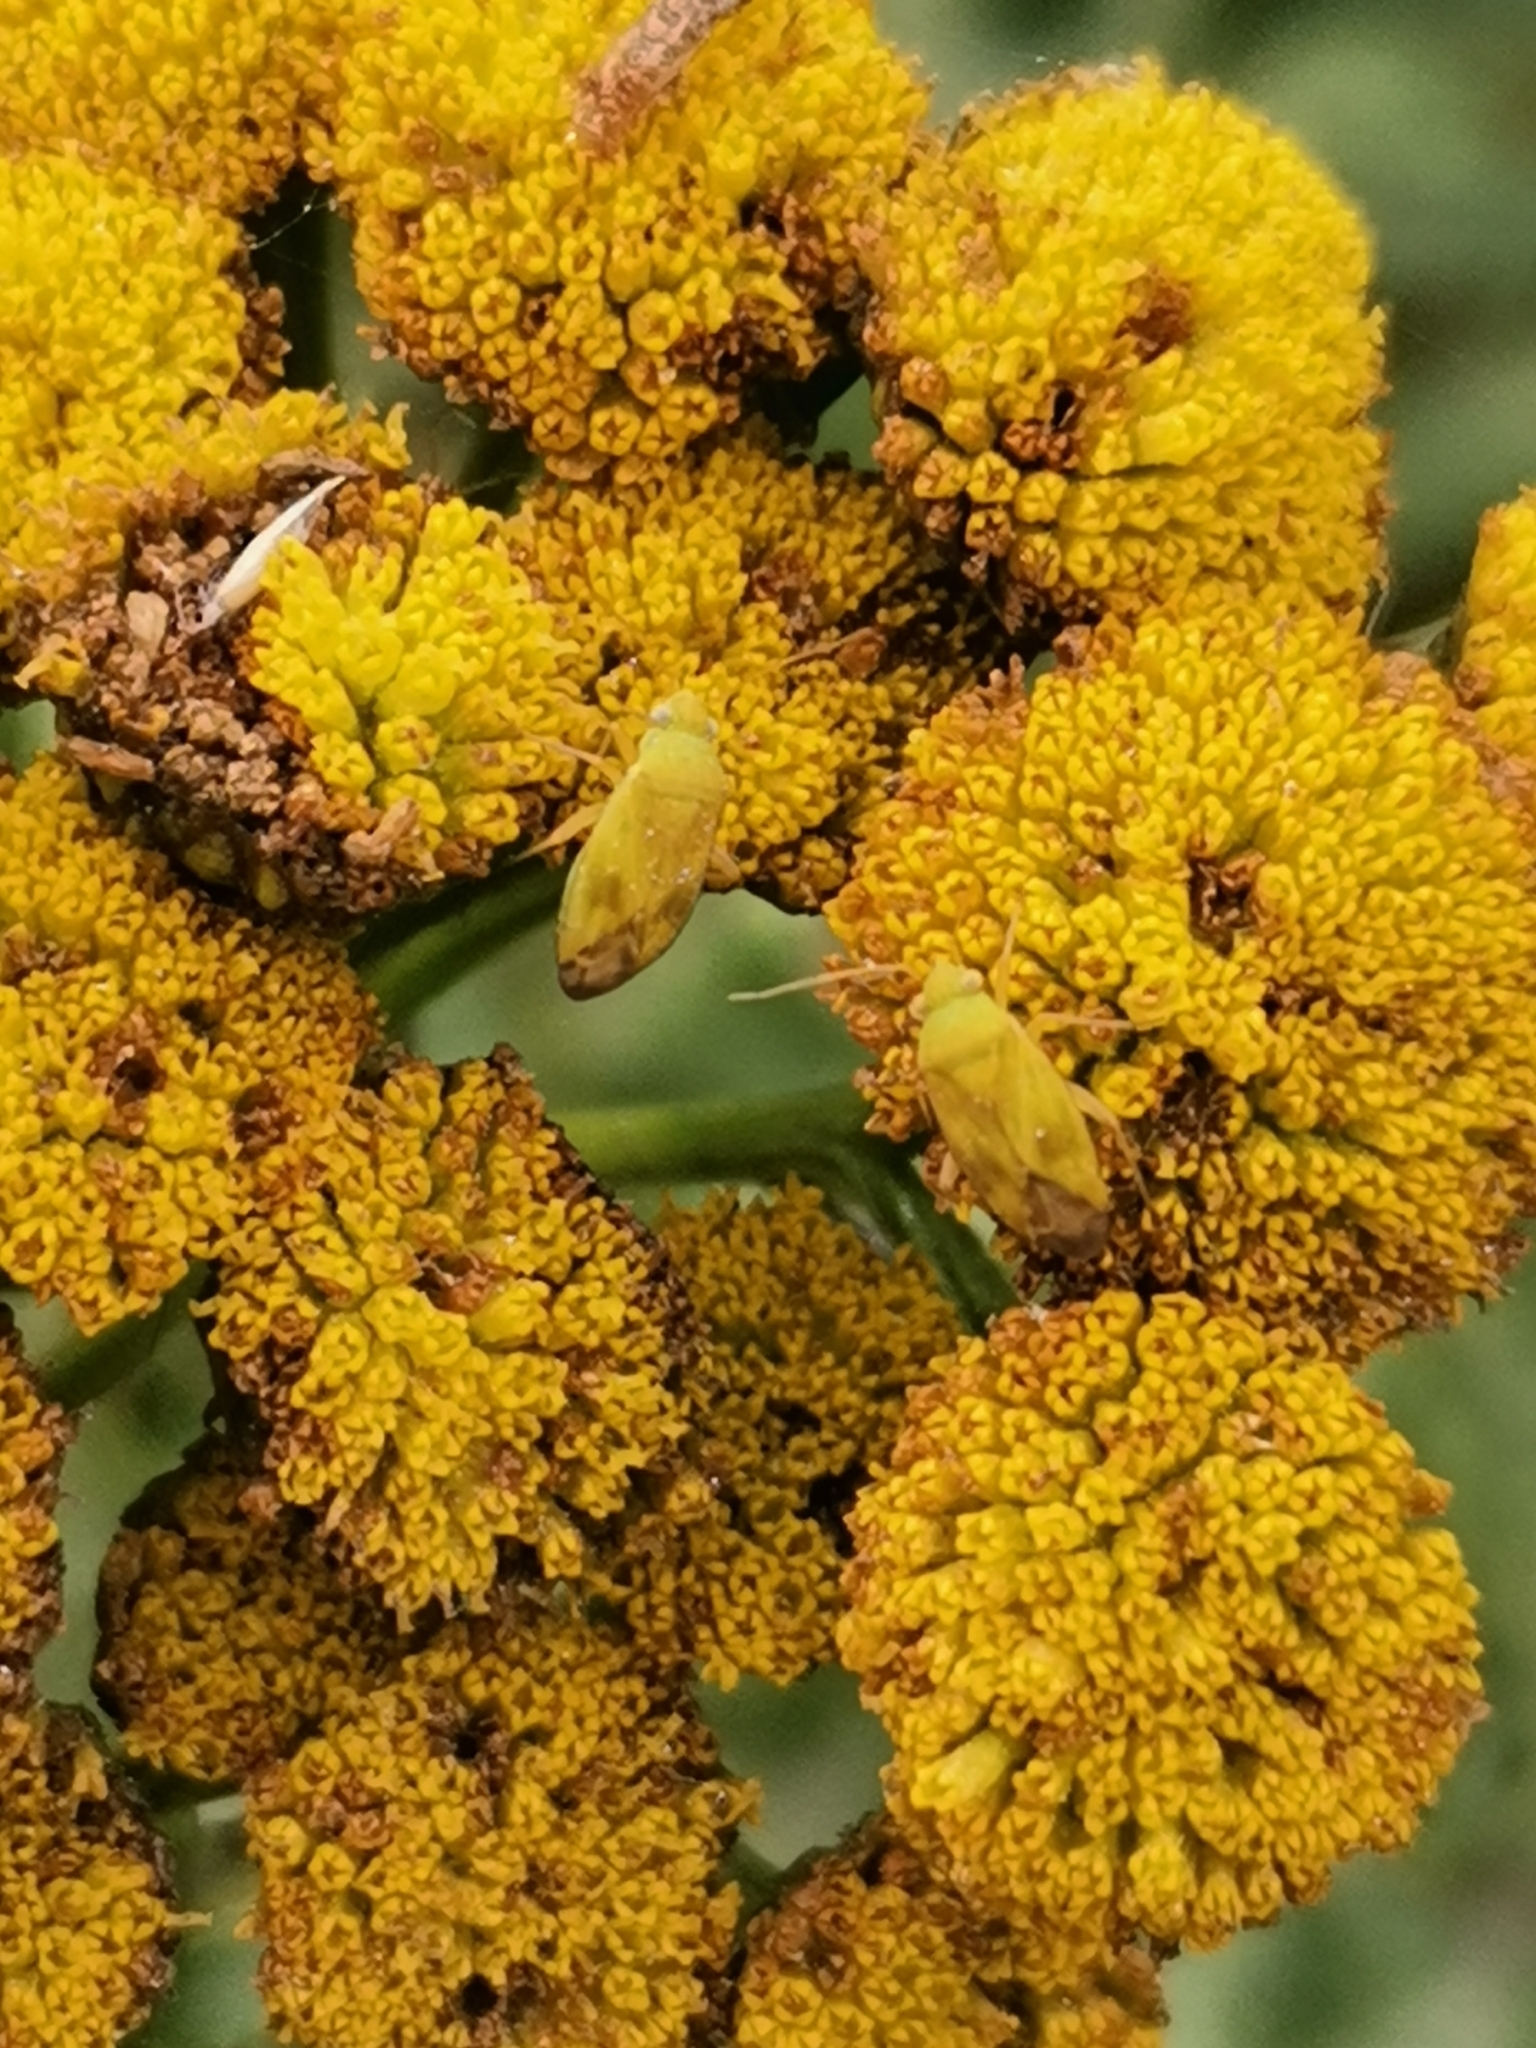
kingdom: Animalia
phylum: Arthropoda
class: Insecta
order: Hemiptera
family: Miridae
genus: Megalocoleus
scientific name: Megalocoleus tanaceti
